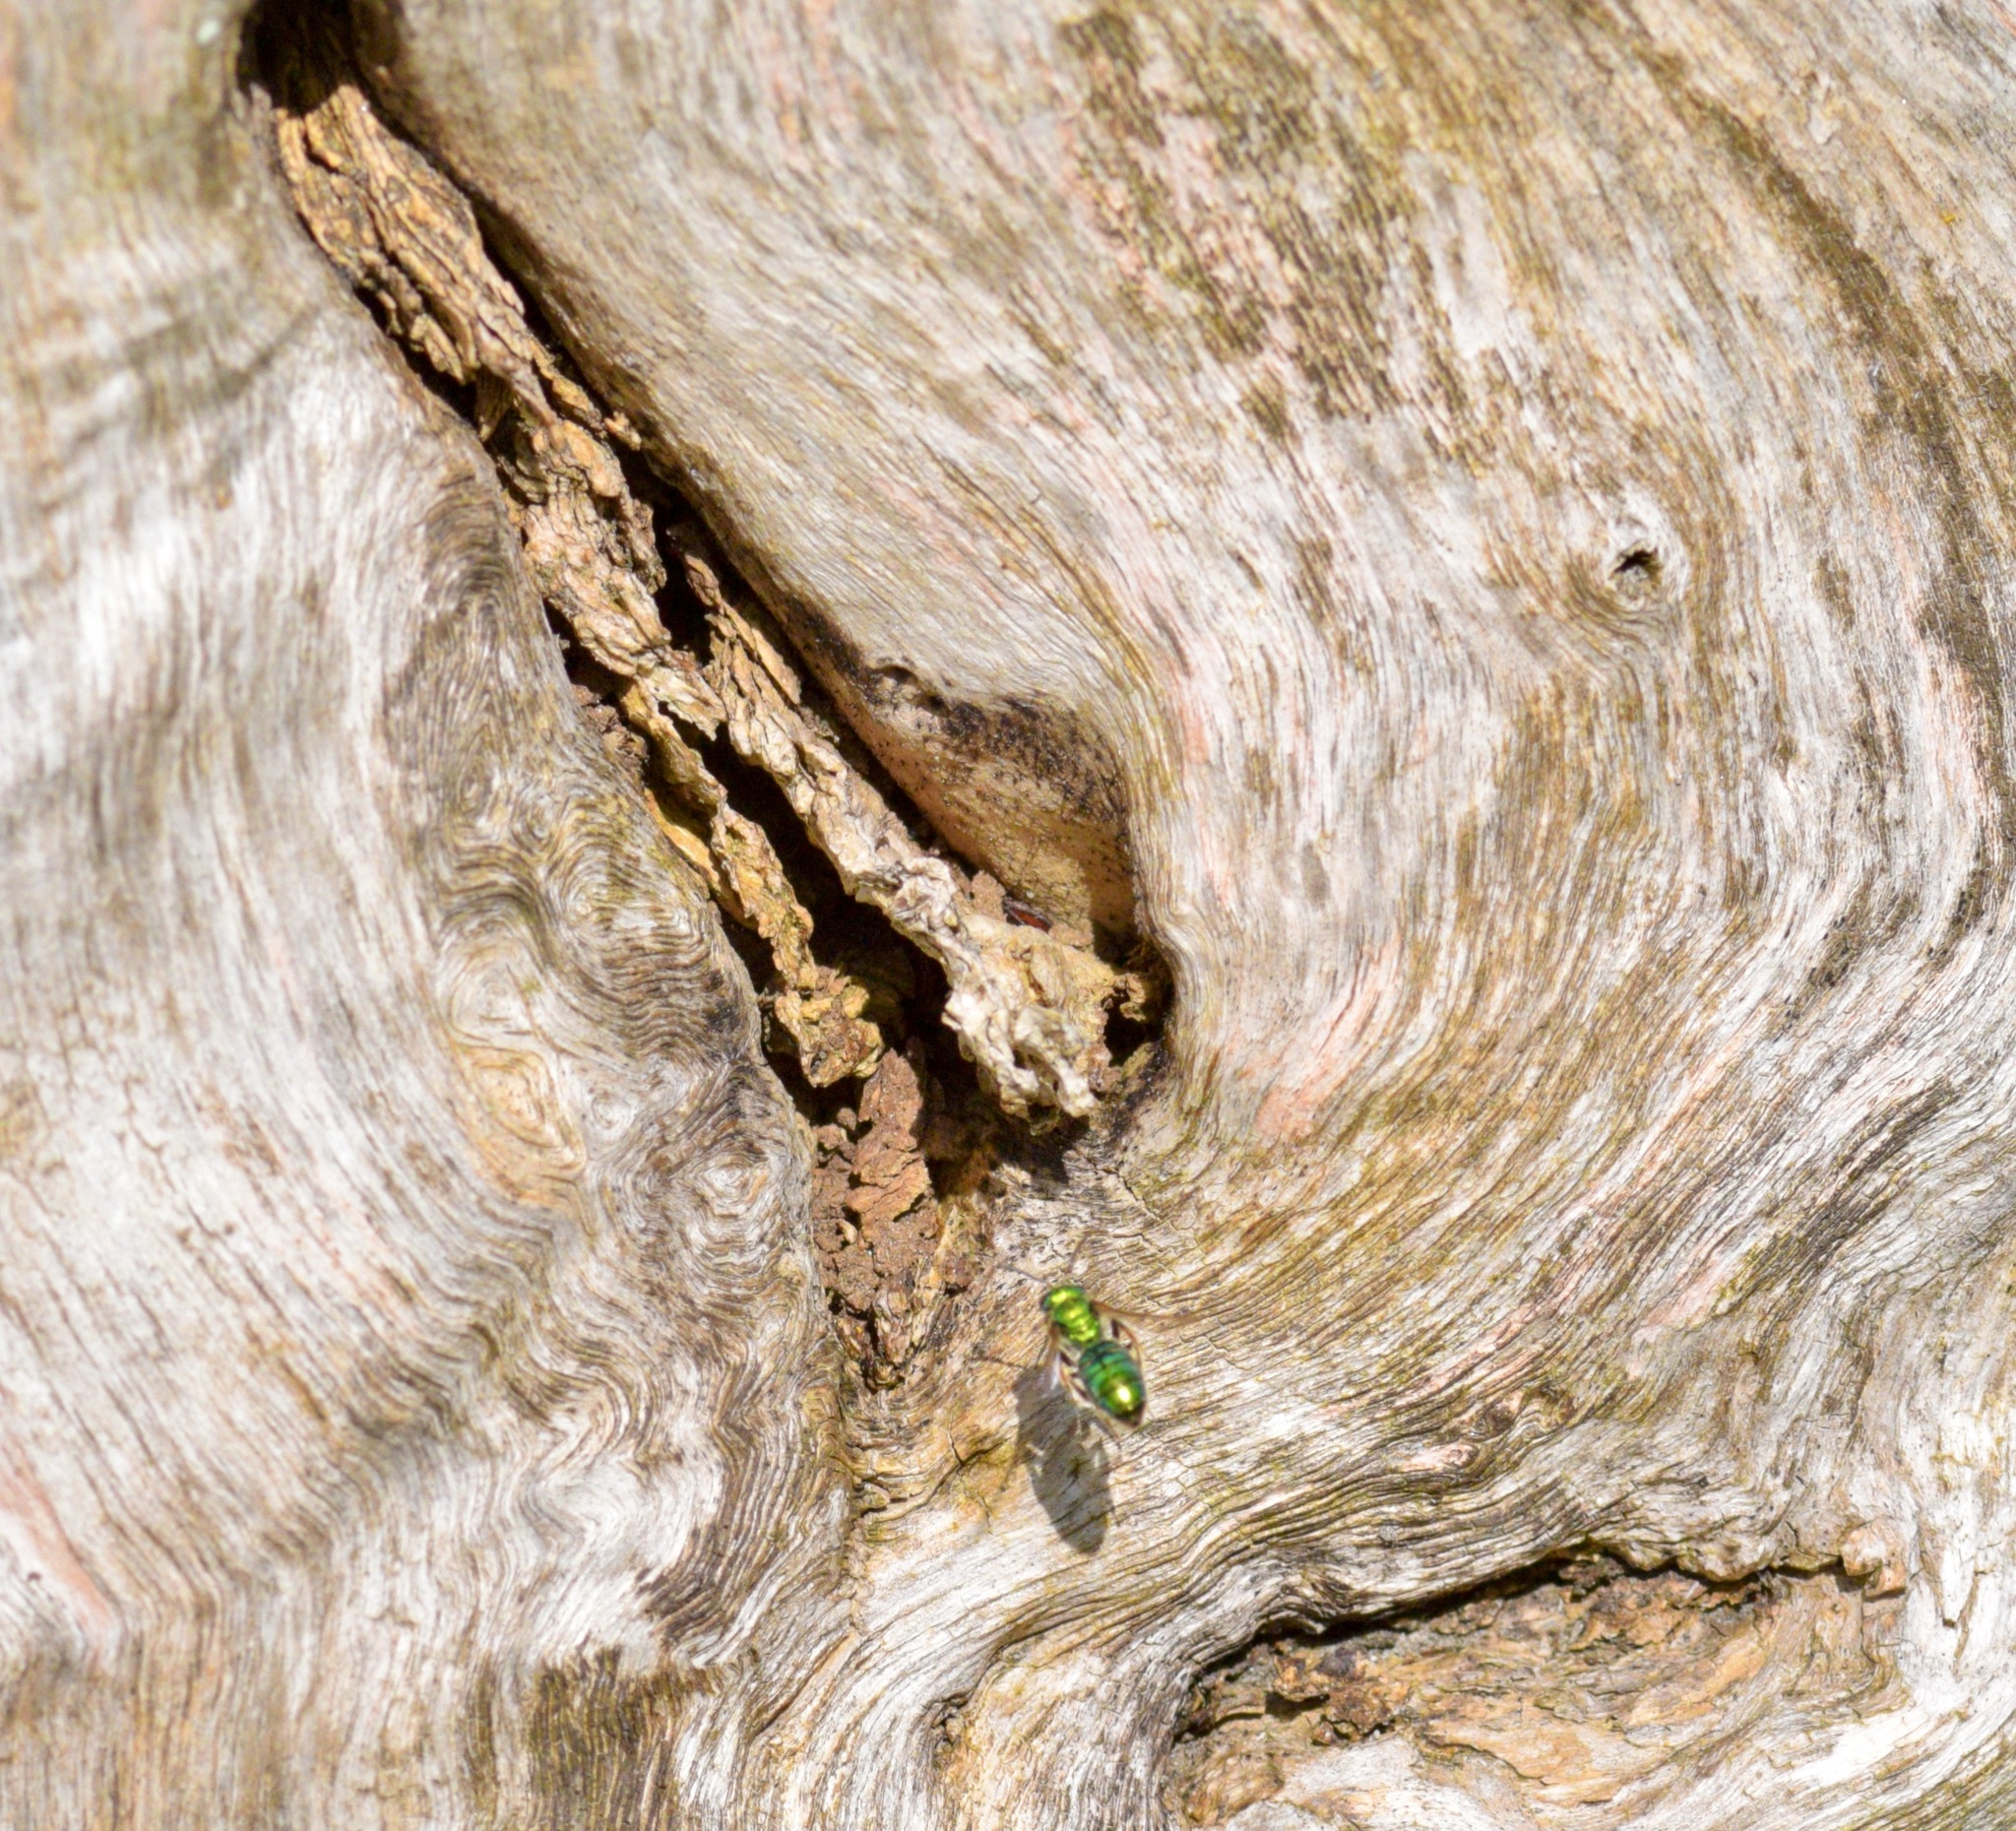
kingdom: Animalia
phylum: Arthropoda
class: Insecta
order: Hymenoptera
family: Halictidae
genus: Augochlora
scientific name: Augochlora pura
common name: Pure green sweat bee
